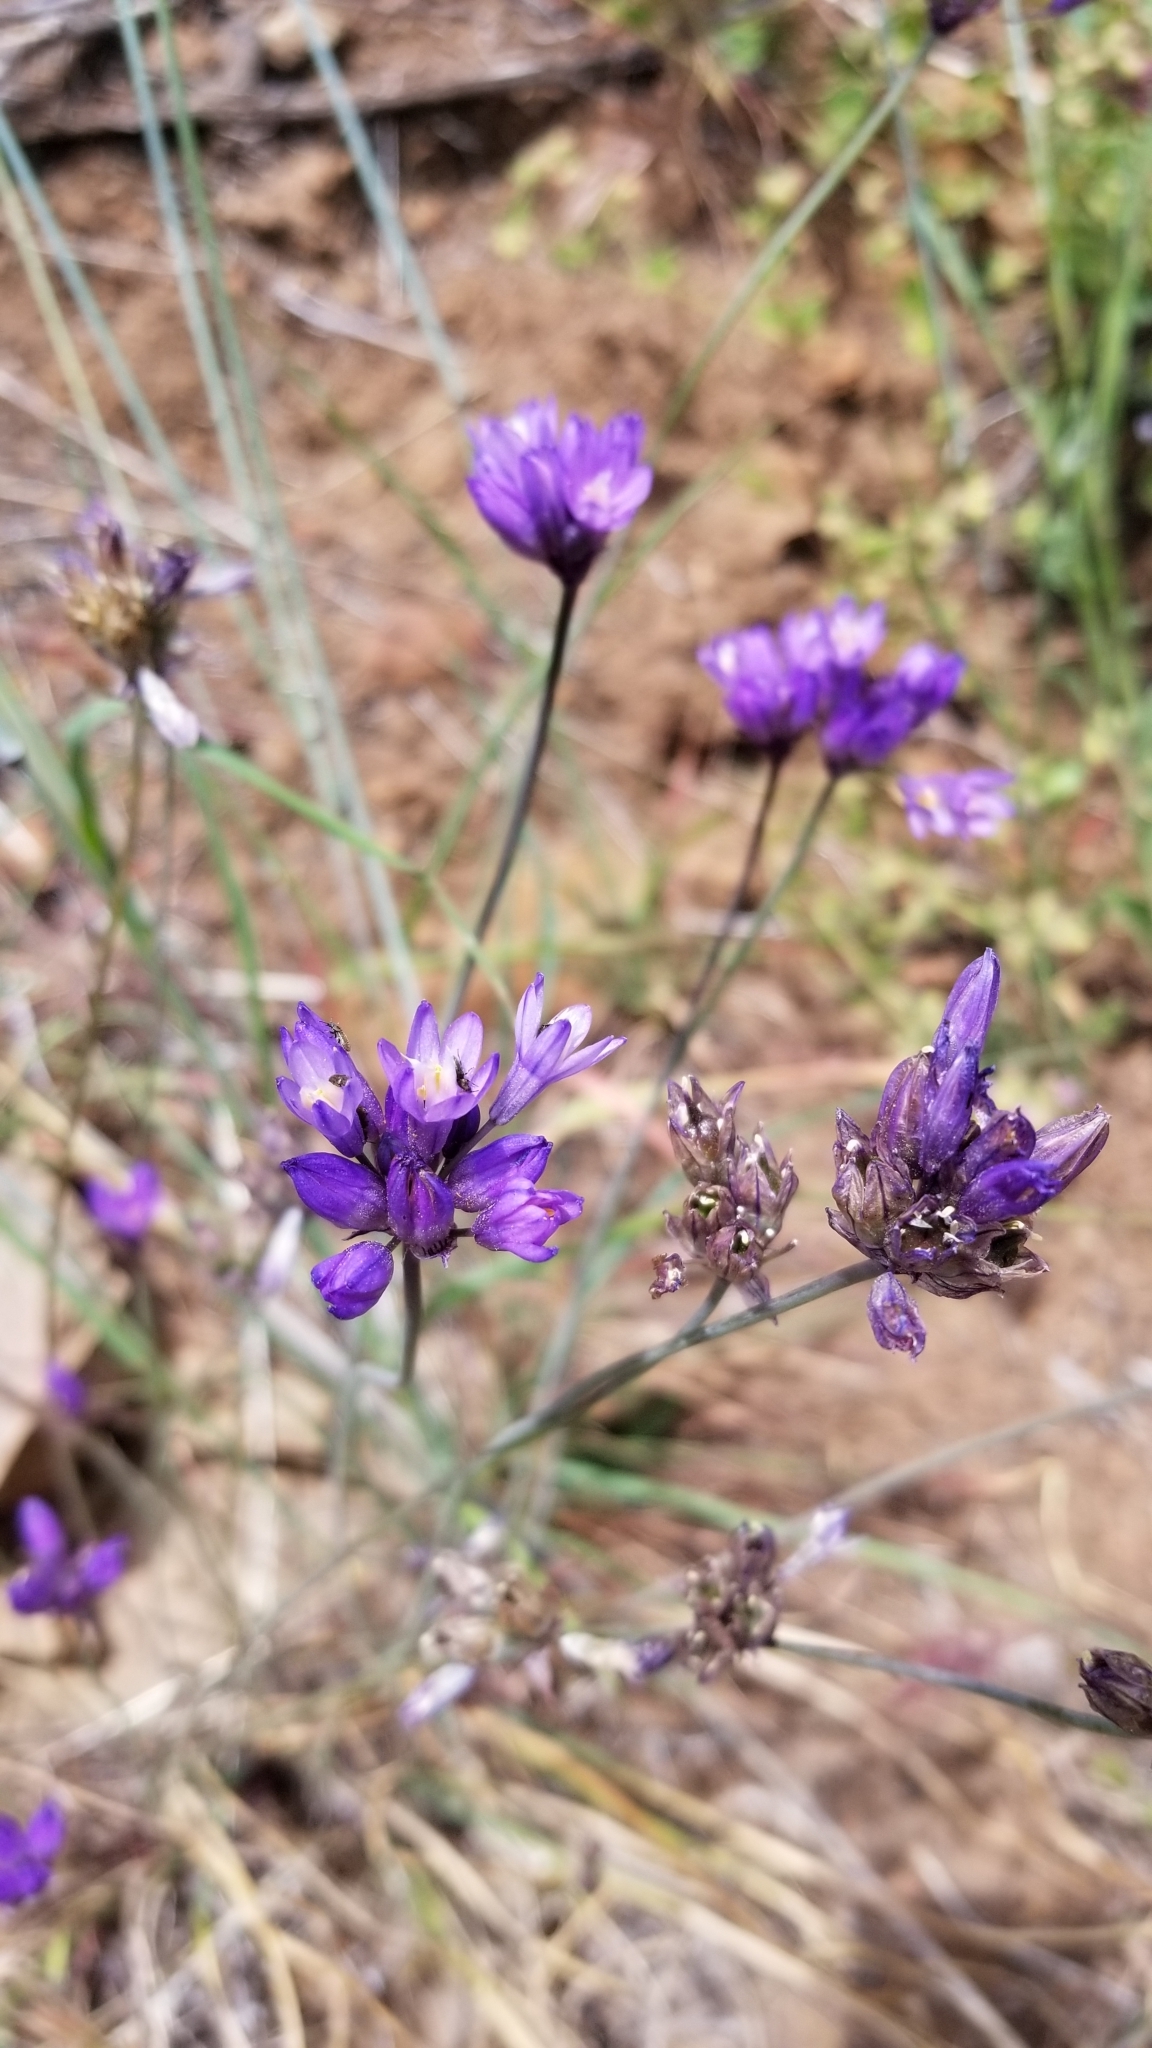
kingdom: Plantae
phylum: Tracheophyta
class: Liliopsida
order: Asparagales
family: Asparagaceae
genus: Dipterostemon
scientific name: Dipterostemon capitatus
